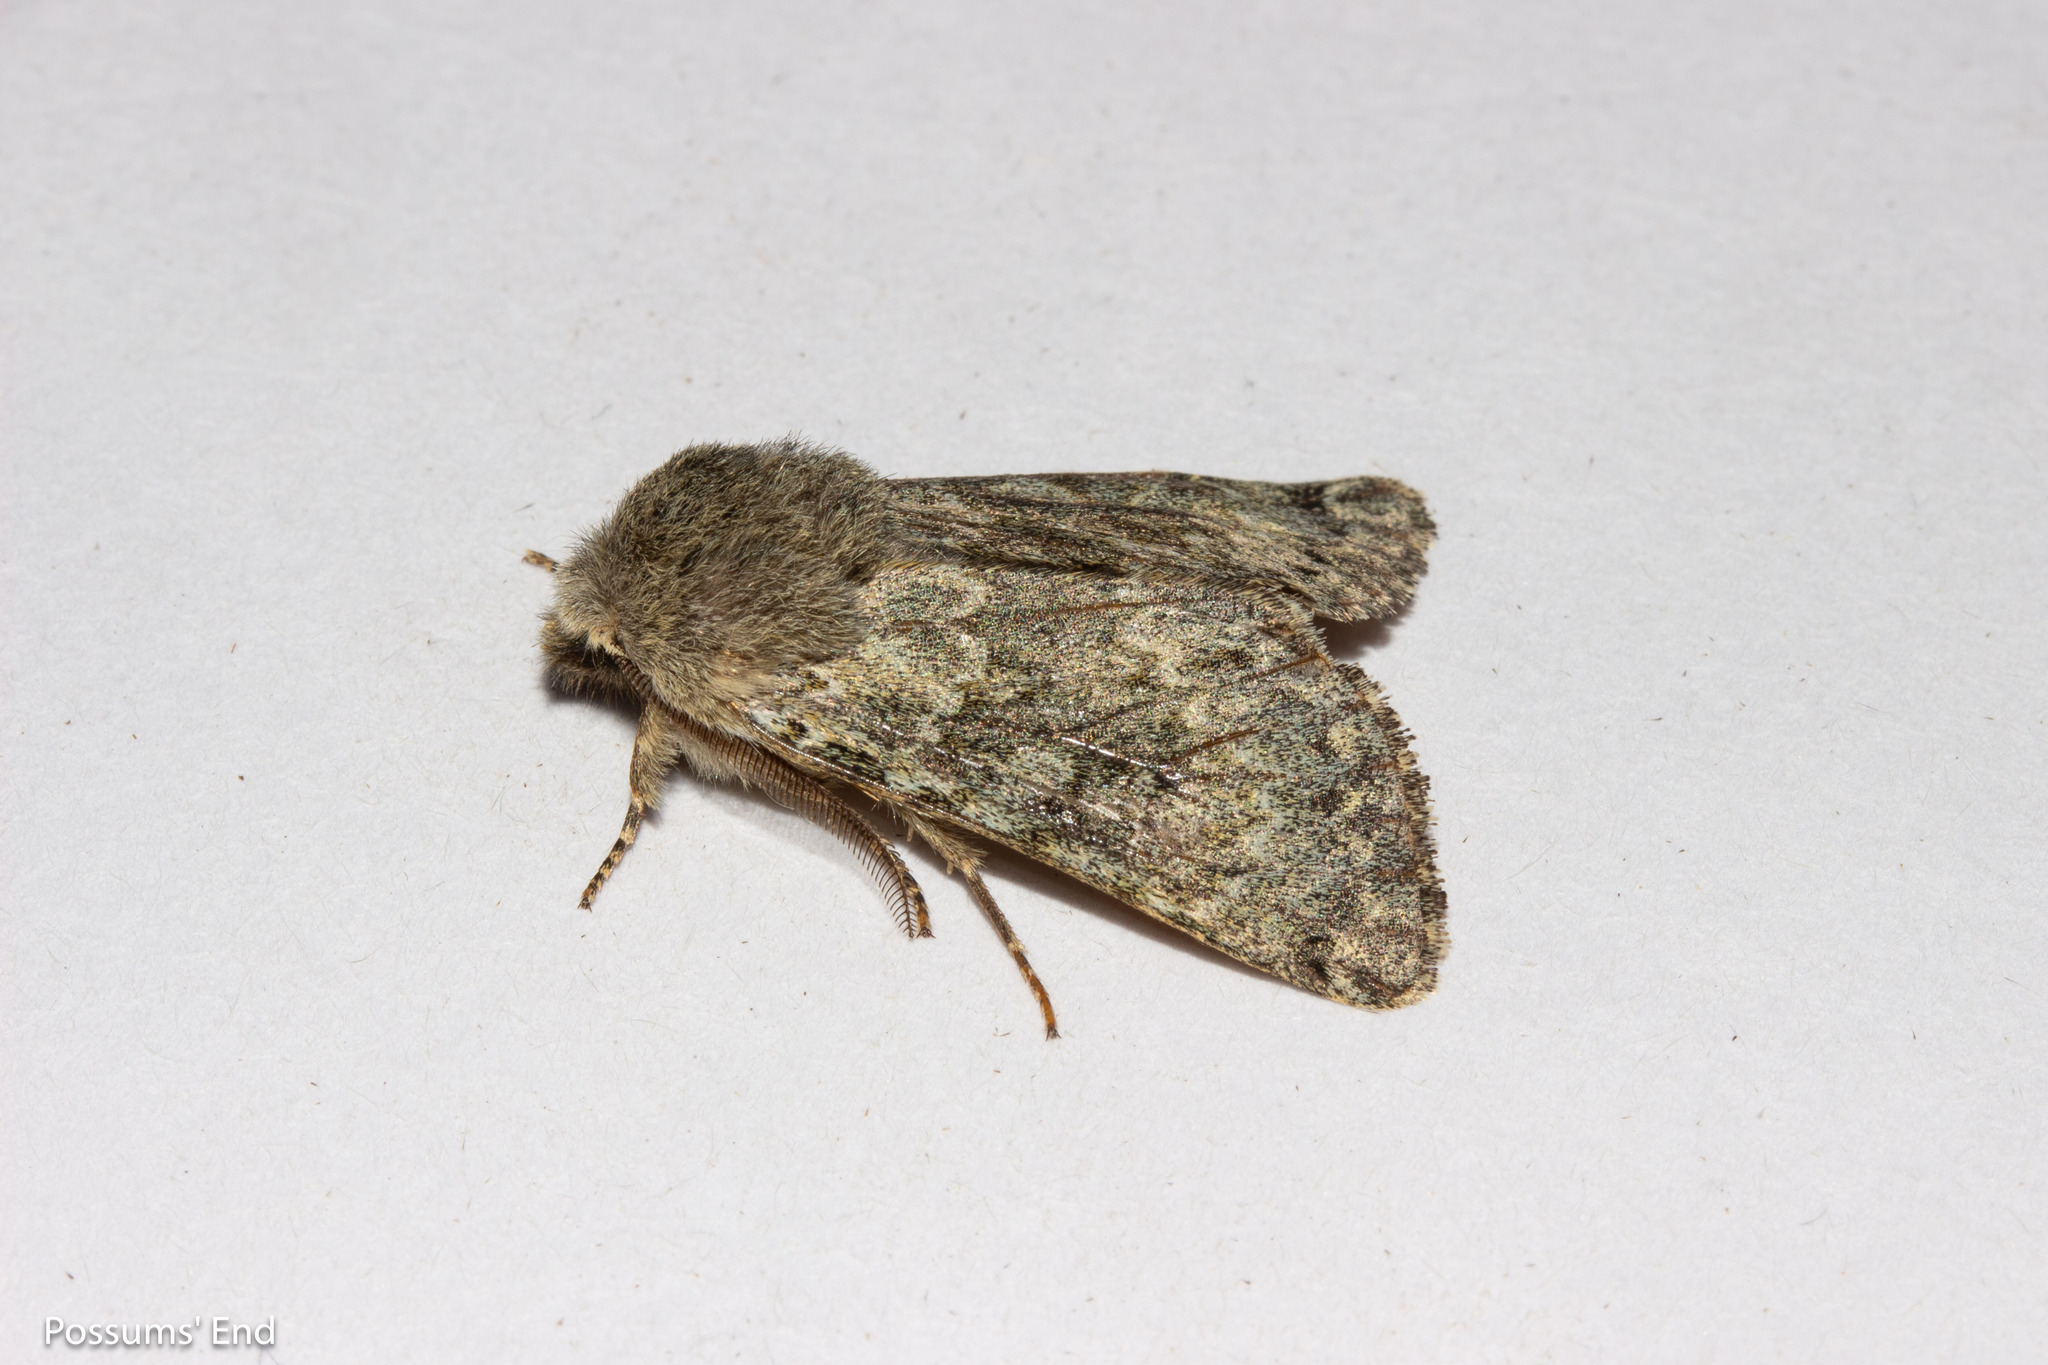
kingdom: Animalia
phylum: Arthropoda
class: Insecta
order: Lepidoptera
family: Noctuidae
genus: Ichneutica
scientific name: Ichneutica cana
